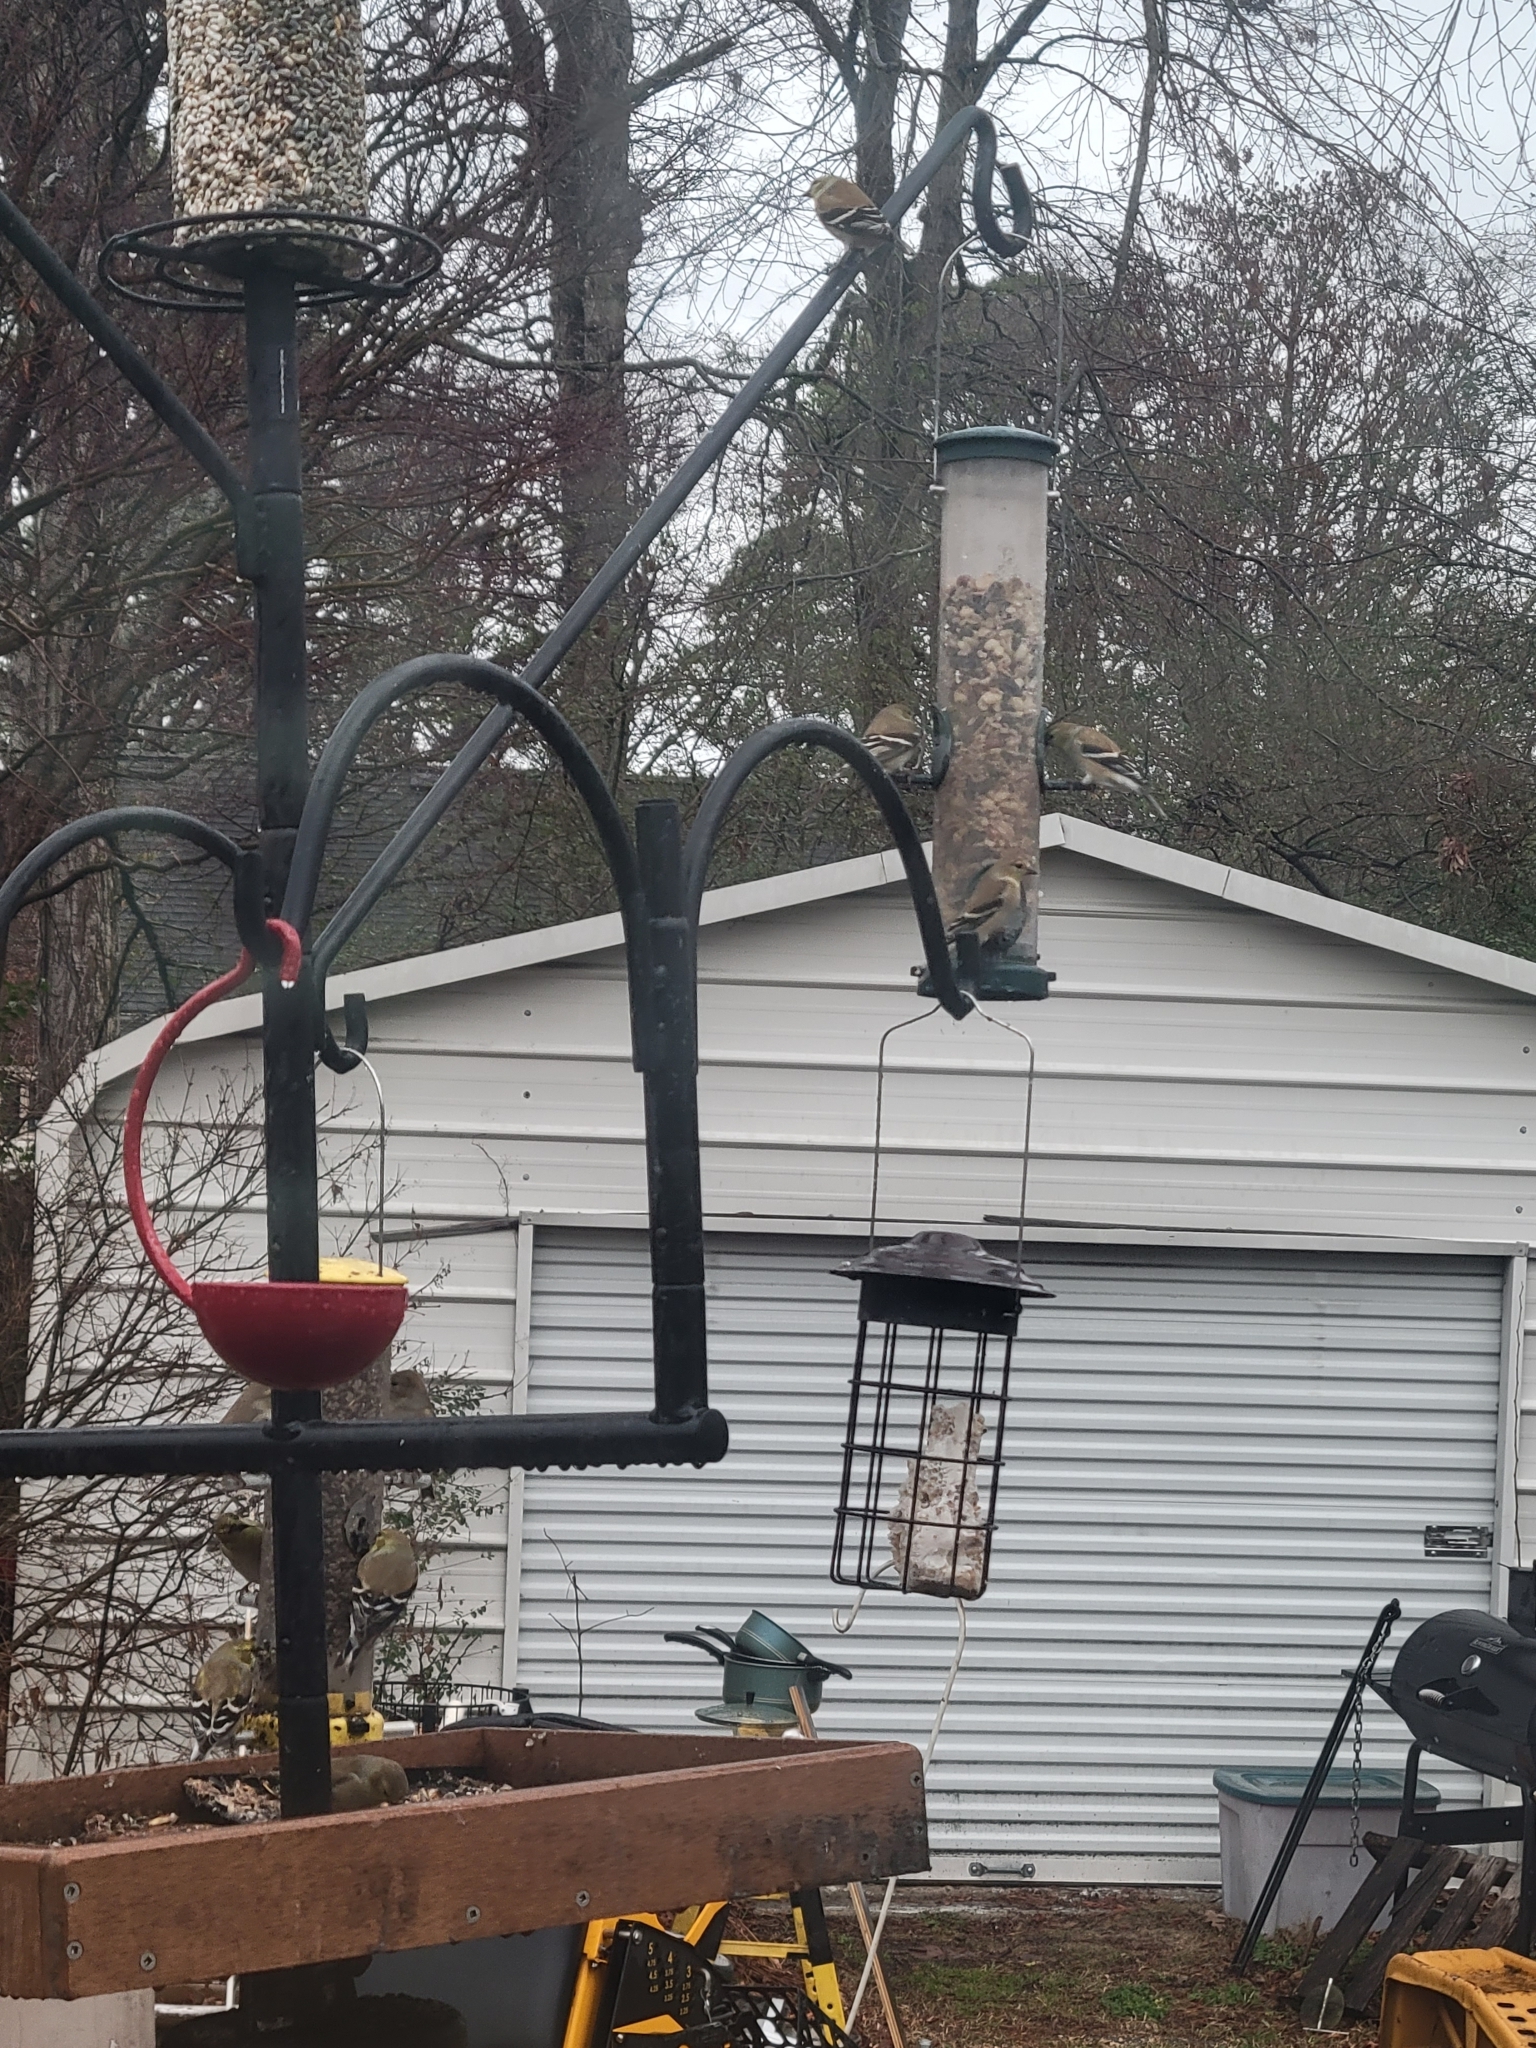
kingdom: Animalia
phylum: Chordata
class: Aves
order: Passeriformes
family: Fringillidae
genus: Spinus
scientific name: Spinus tristis
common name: American goldfinch
